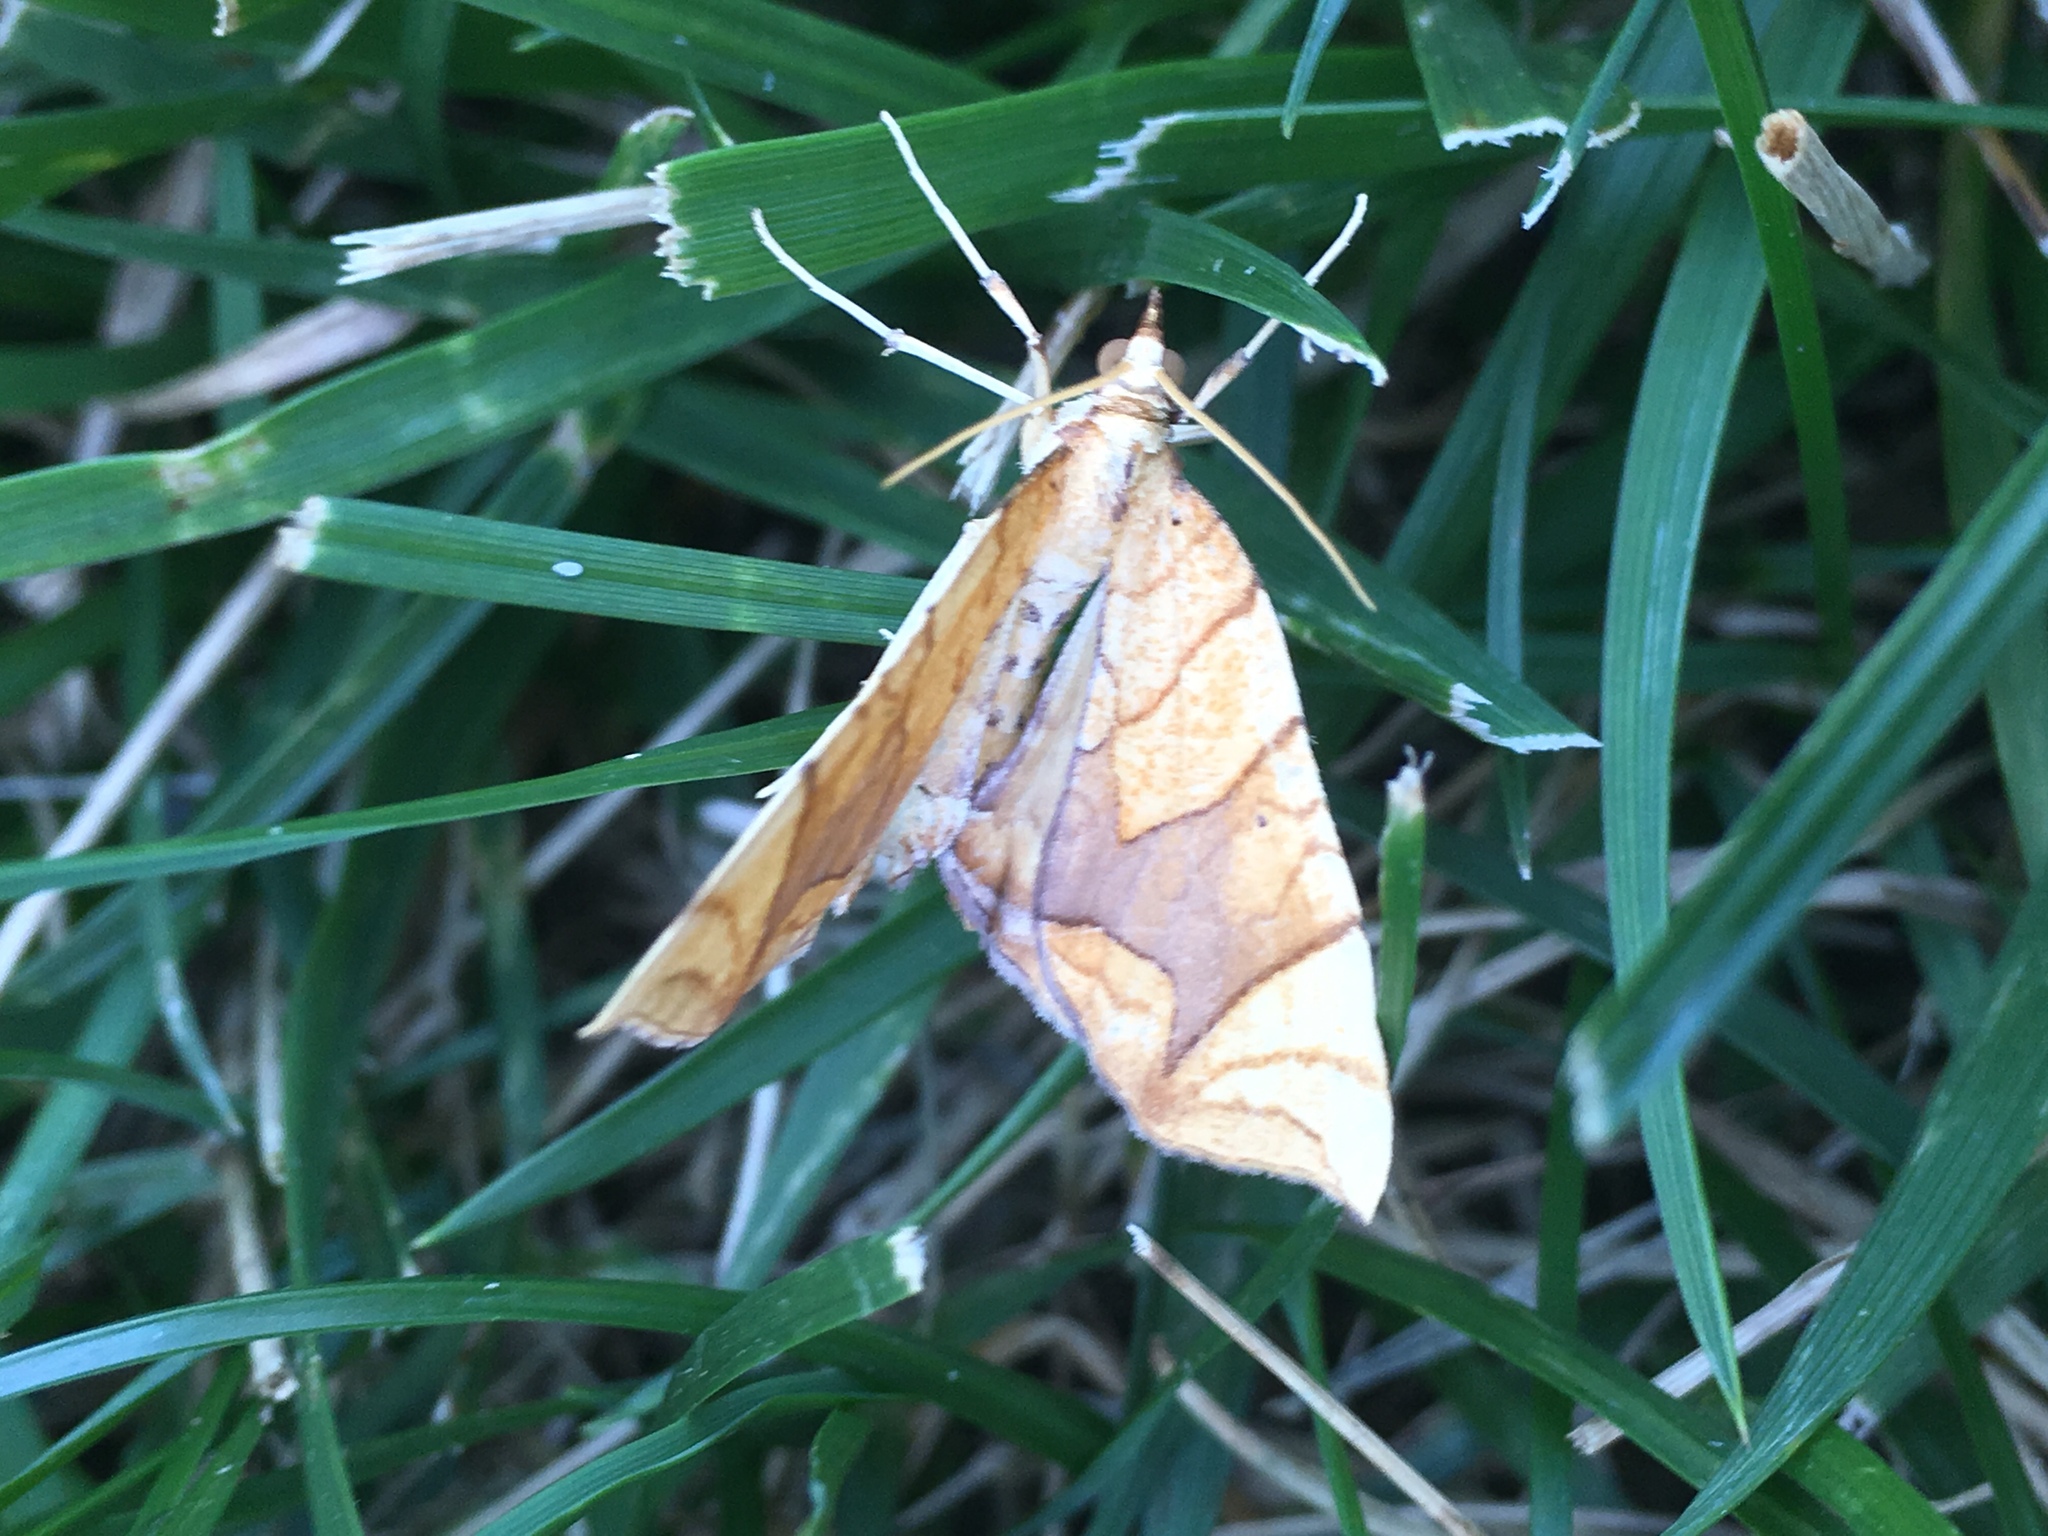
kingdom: Animalia
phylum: Arthropoda
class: Insecta
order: Lepidoptera
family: Geometridae
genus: Eulithis
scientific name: Eulithis diversilineata
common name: Grapevine looper
